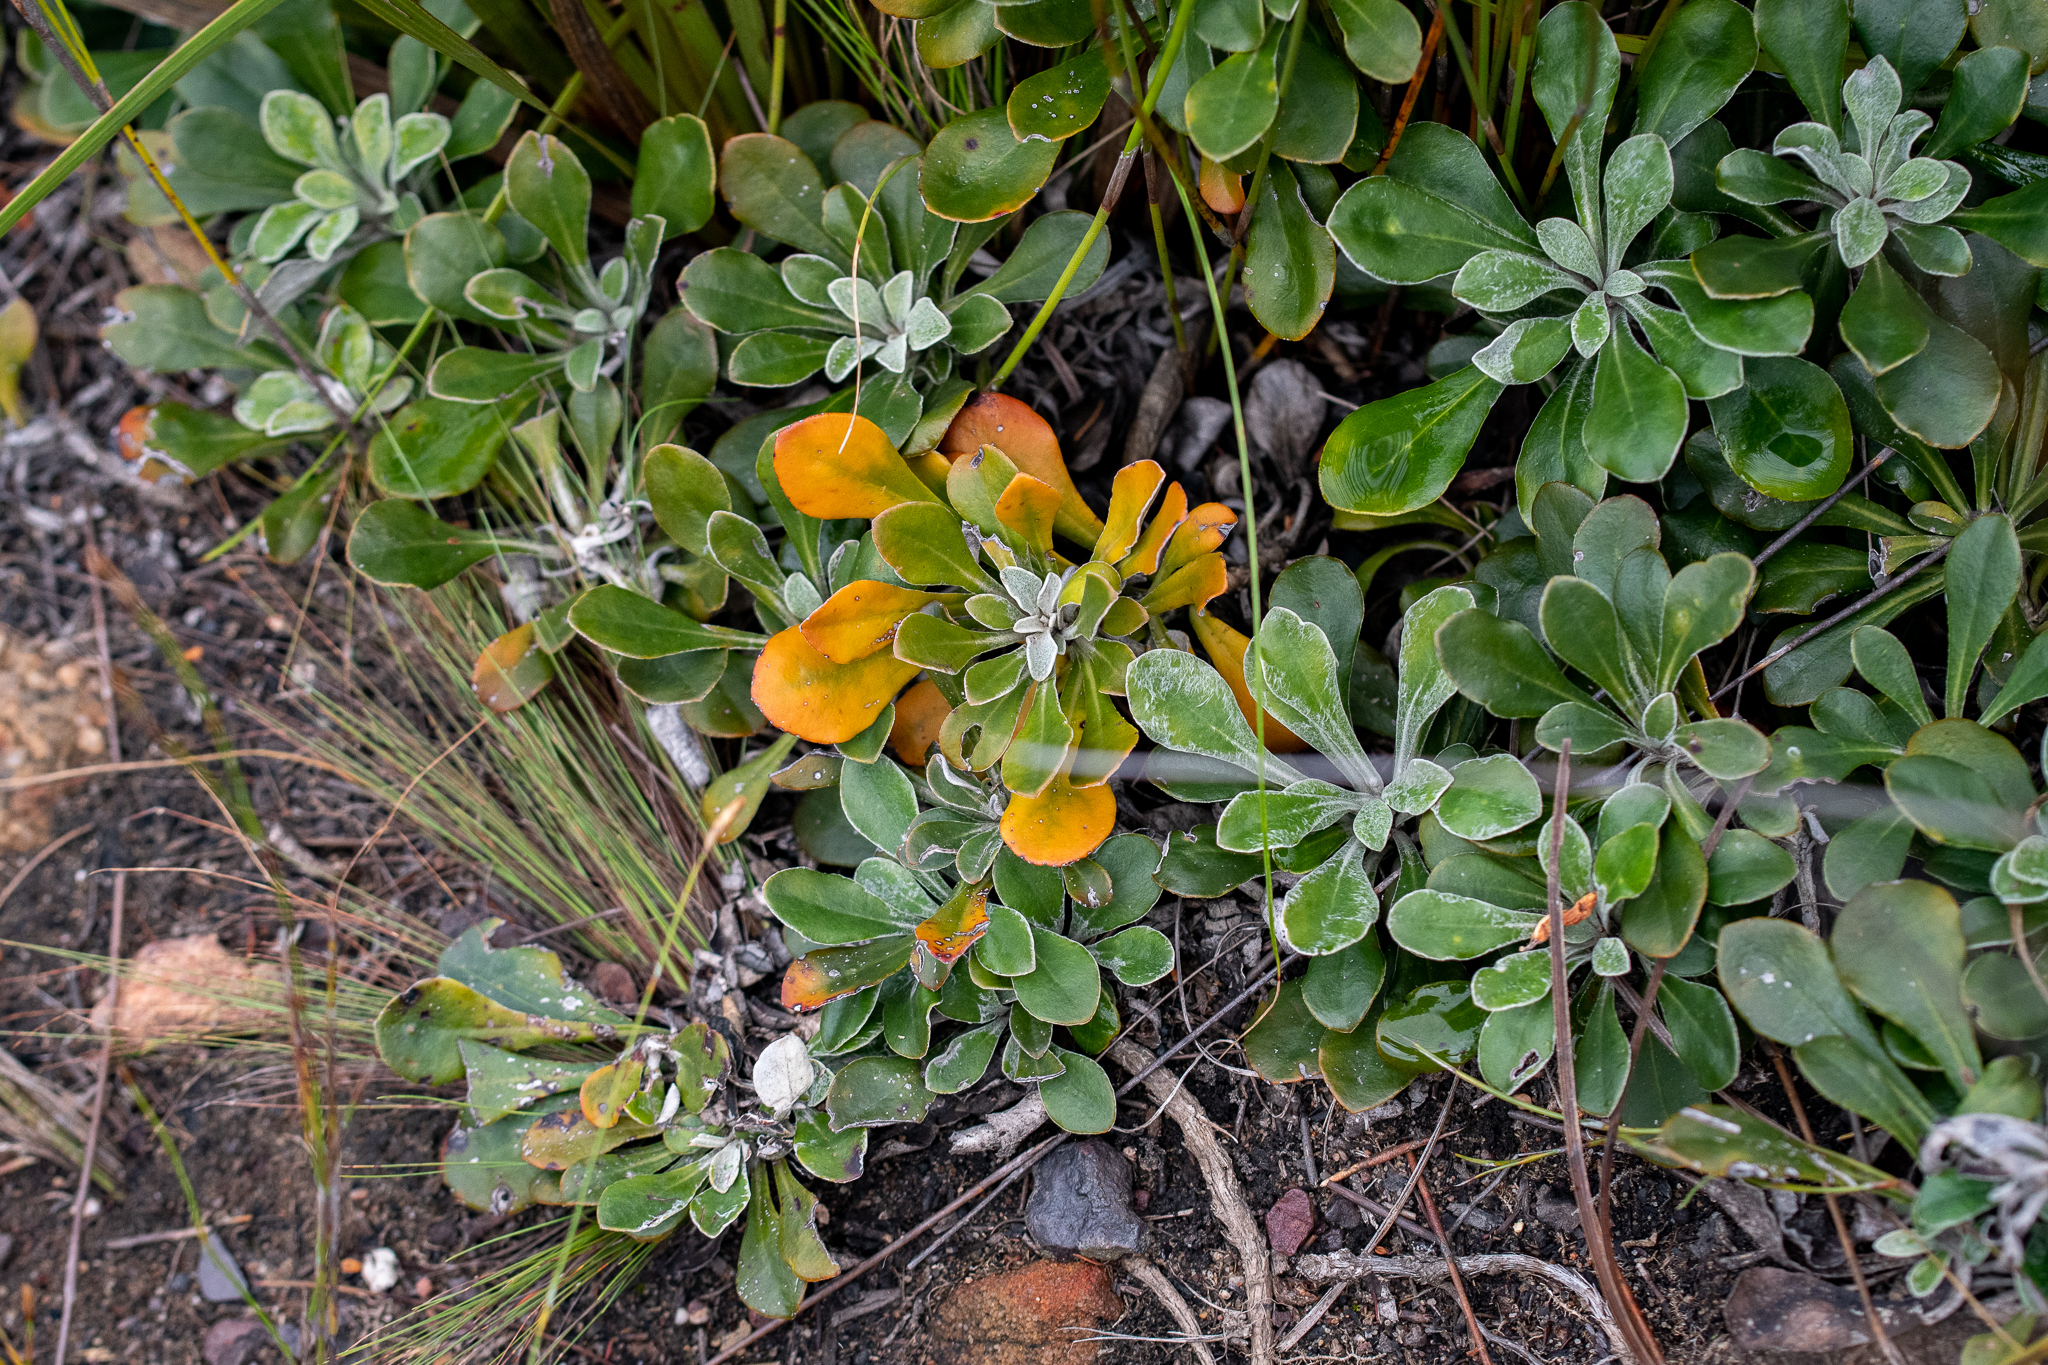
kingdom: Plantae
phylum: Tracheophyta
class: Magnoliopsida
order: Asterales
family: Asteraceae
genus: Osteospermum
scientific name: Osteospermum tomentosum
